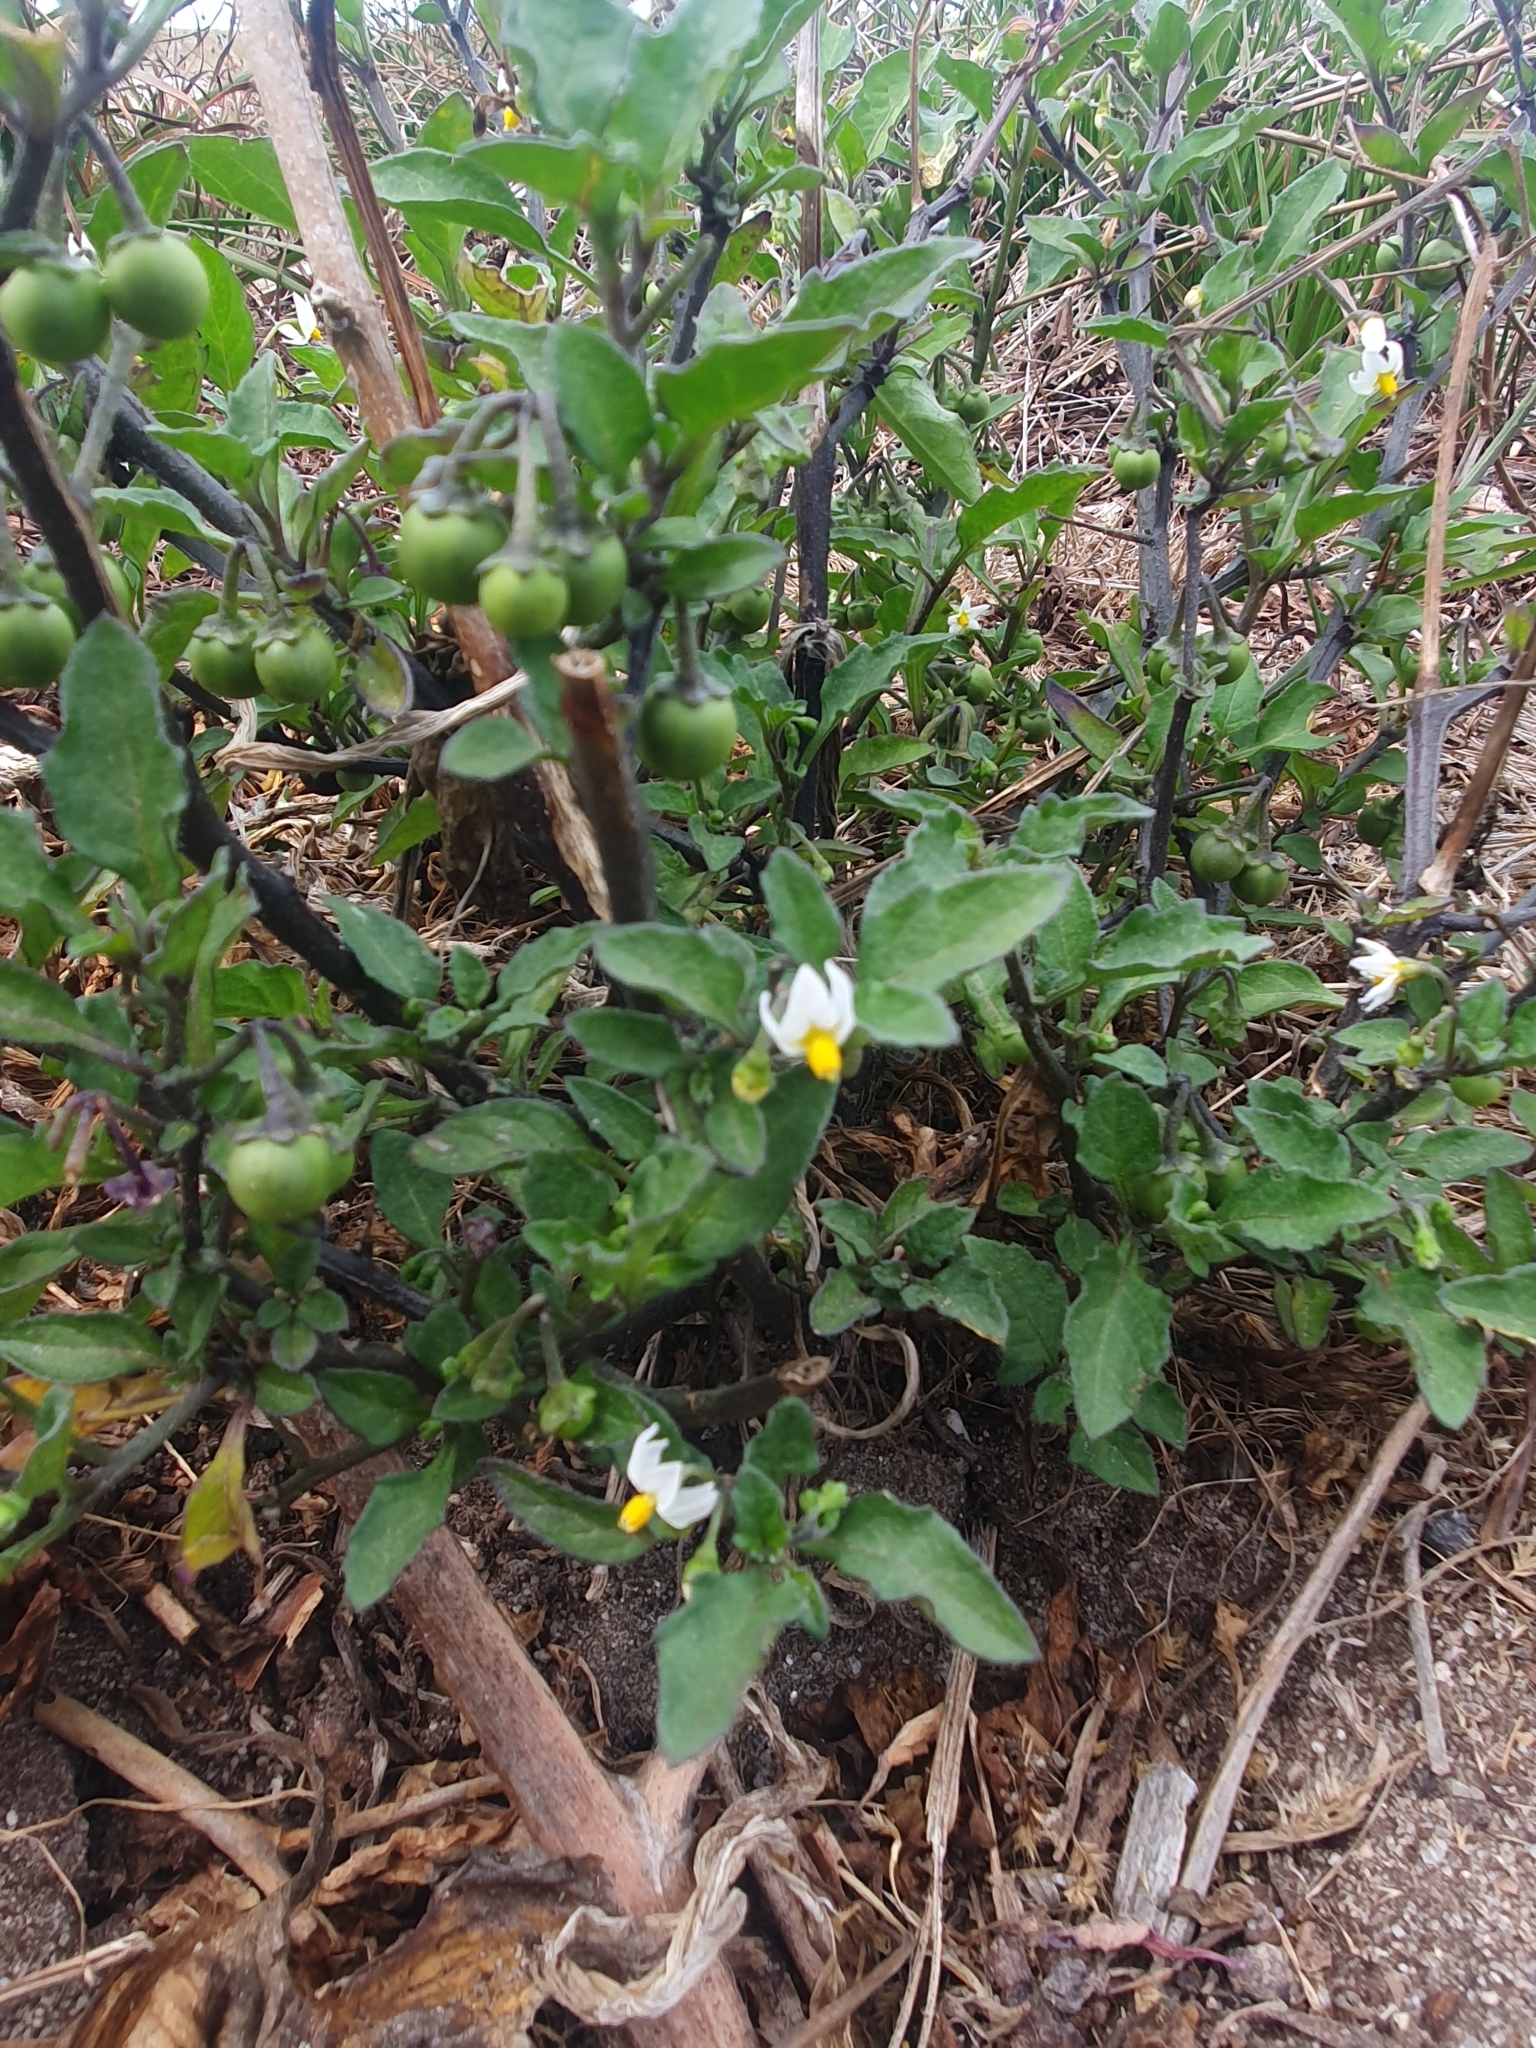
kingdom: Plantae
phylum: Tracheophyta
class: Magnoliopsida
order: Solanales
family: Solanaceae
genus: Solanum
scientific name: Solanum nigrum
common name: Black nightshade
